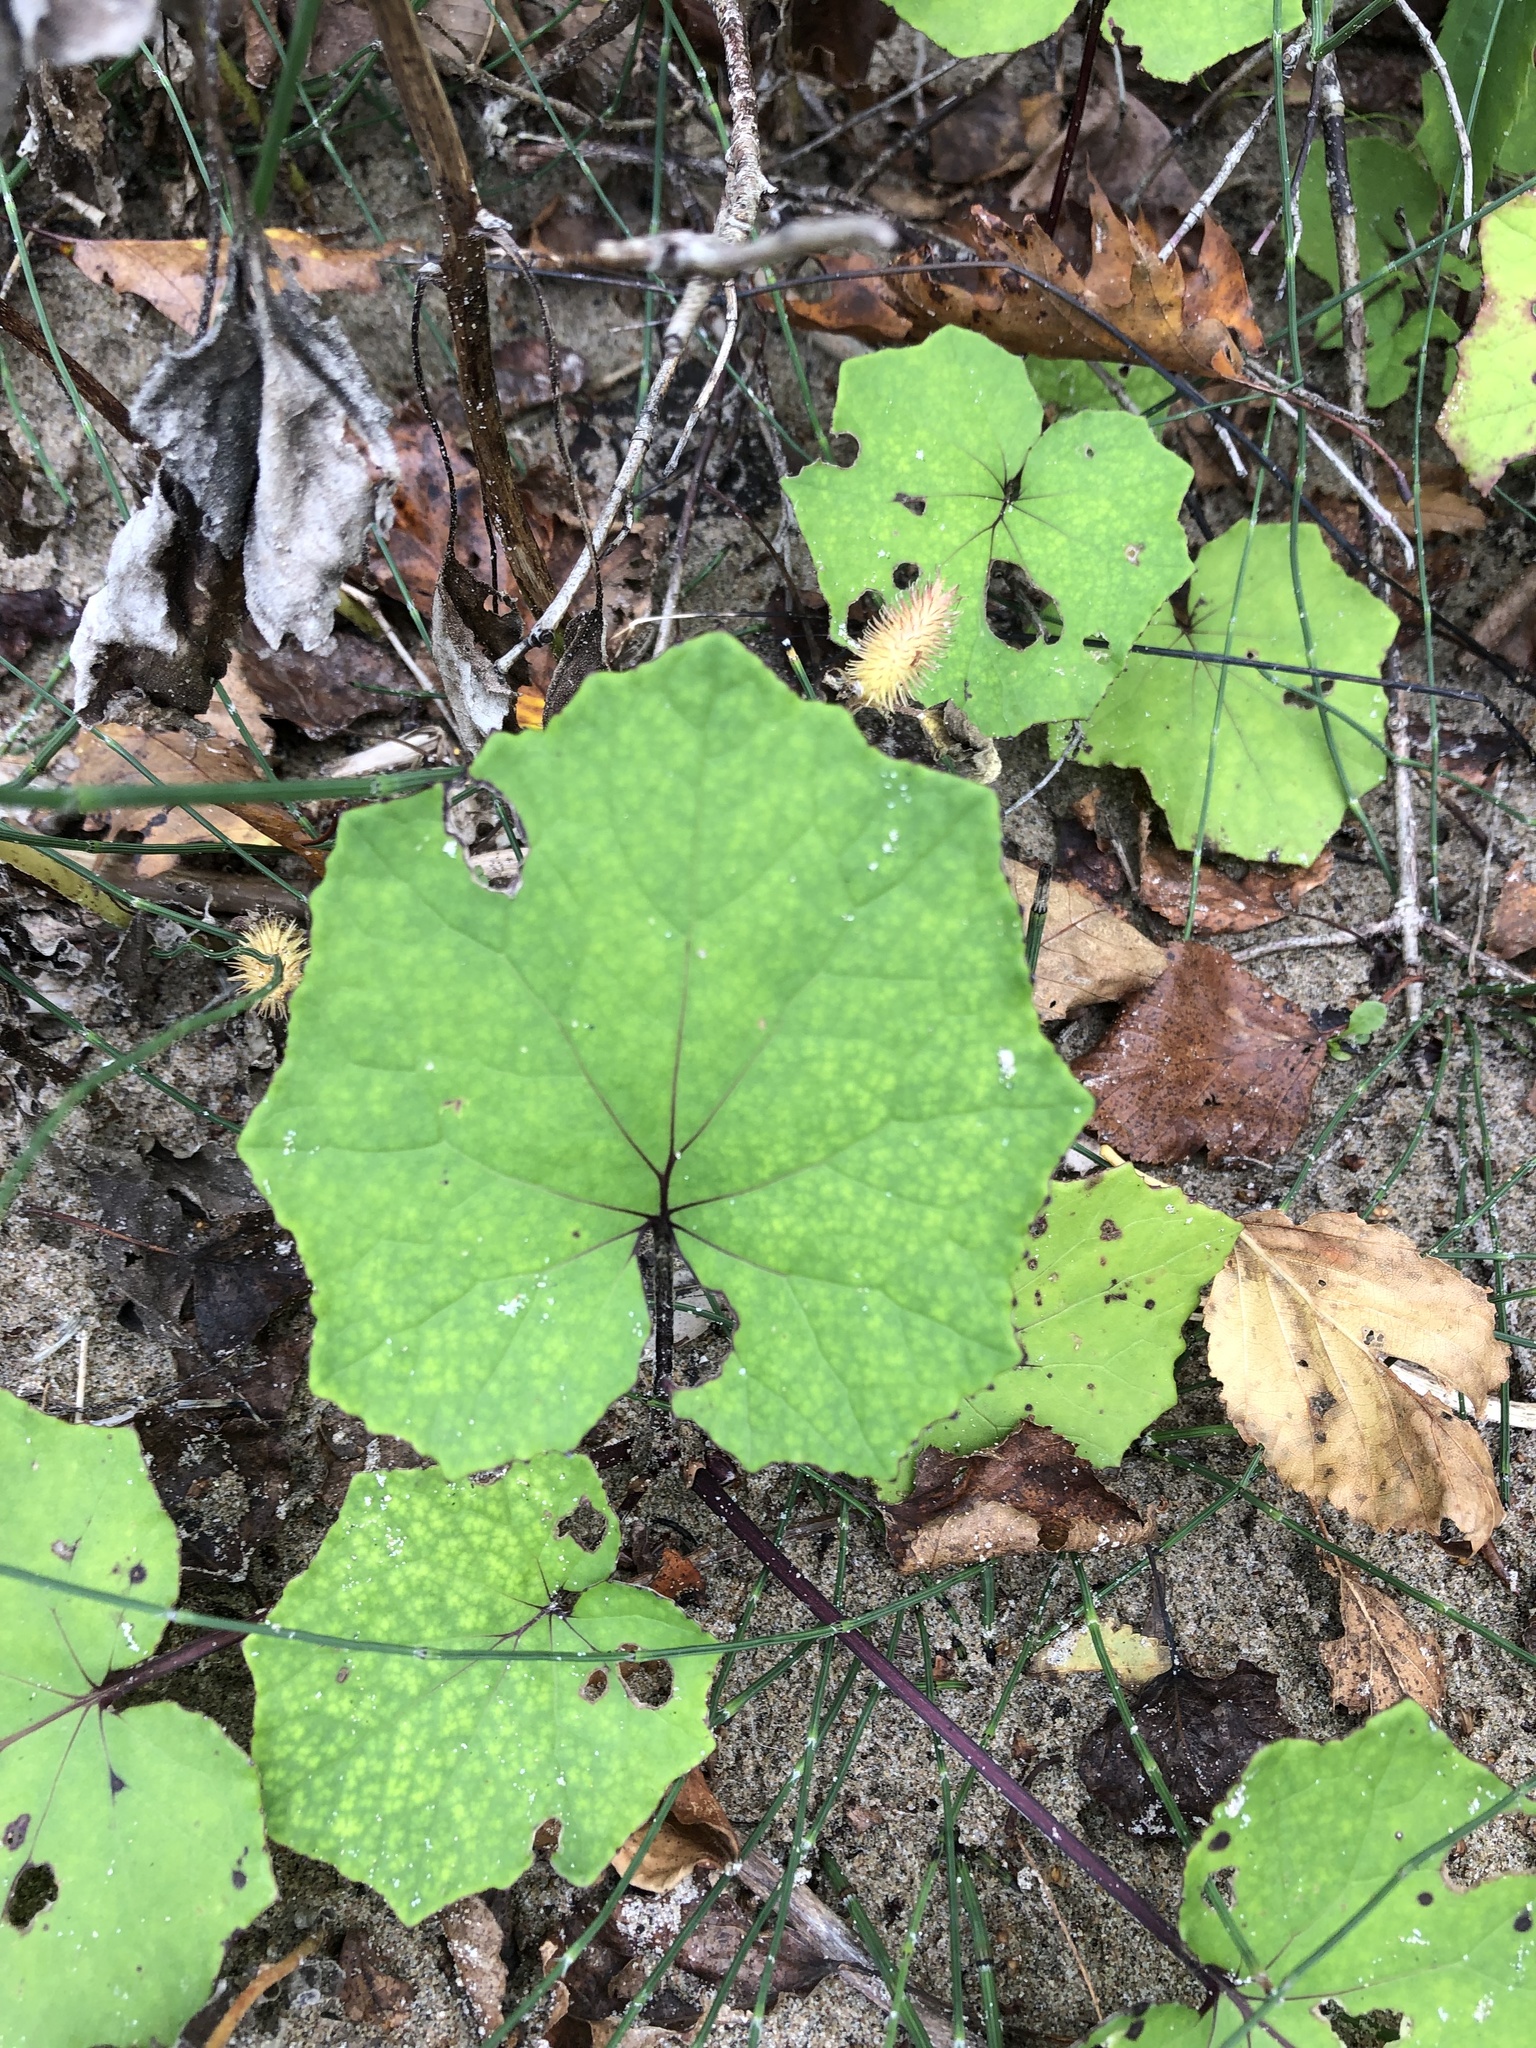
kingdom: Plantae
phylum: Tracheophyta
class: Magnoliopsida
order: Asterales
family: Asteraceae
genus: Tussilago
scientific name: Tussilago farfara
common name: Coltsfoot
